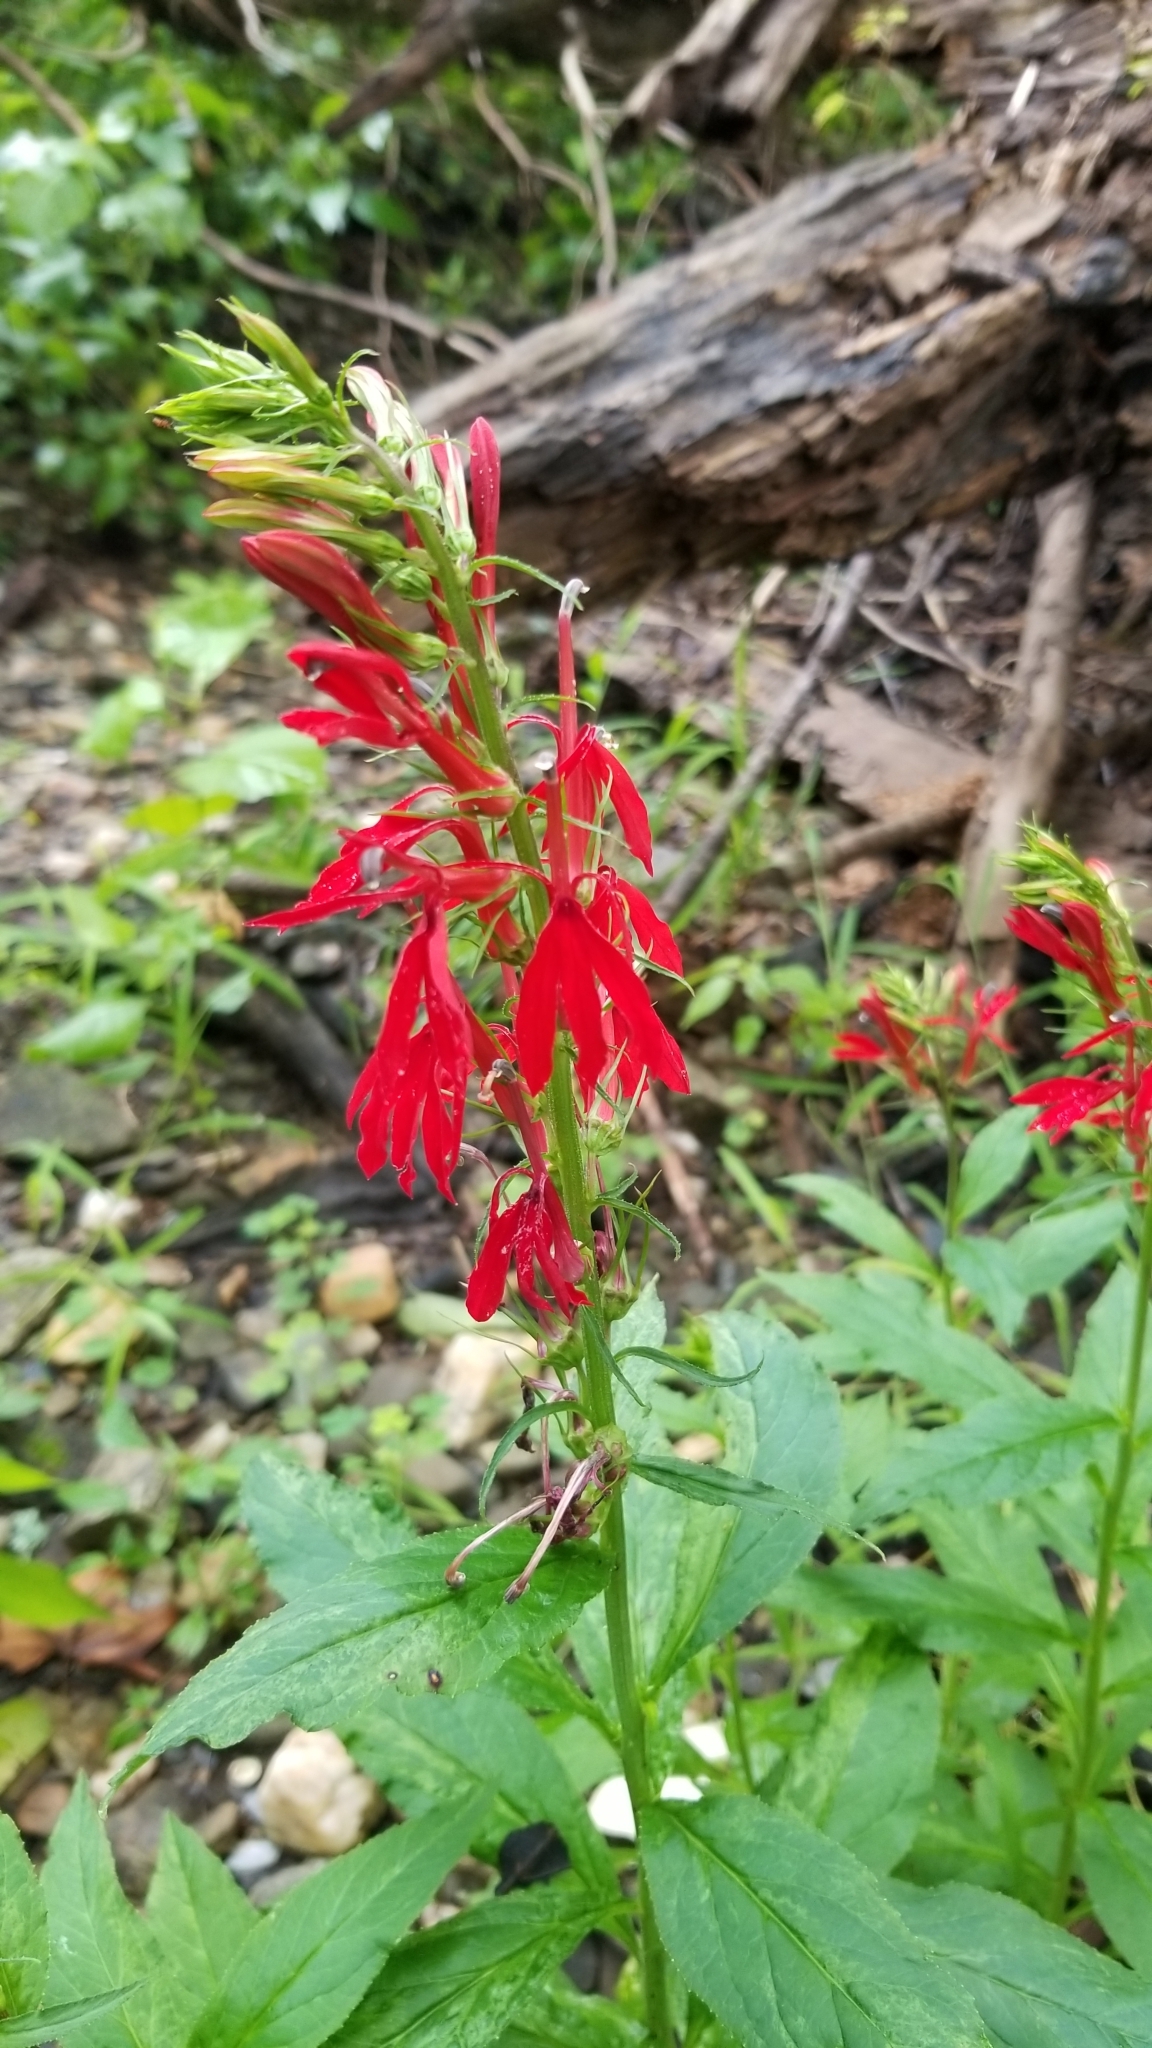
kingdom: Plantae
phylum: Tracheophyta
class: Magnoliopsida
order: Asterales
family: Campanulaceae
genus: Lobelia
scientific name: Lobelia cardinalis
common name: Cardinal flower
